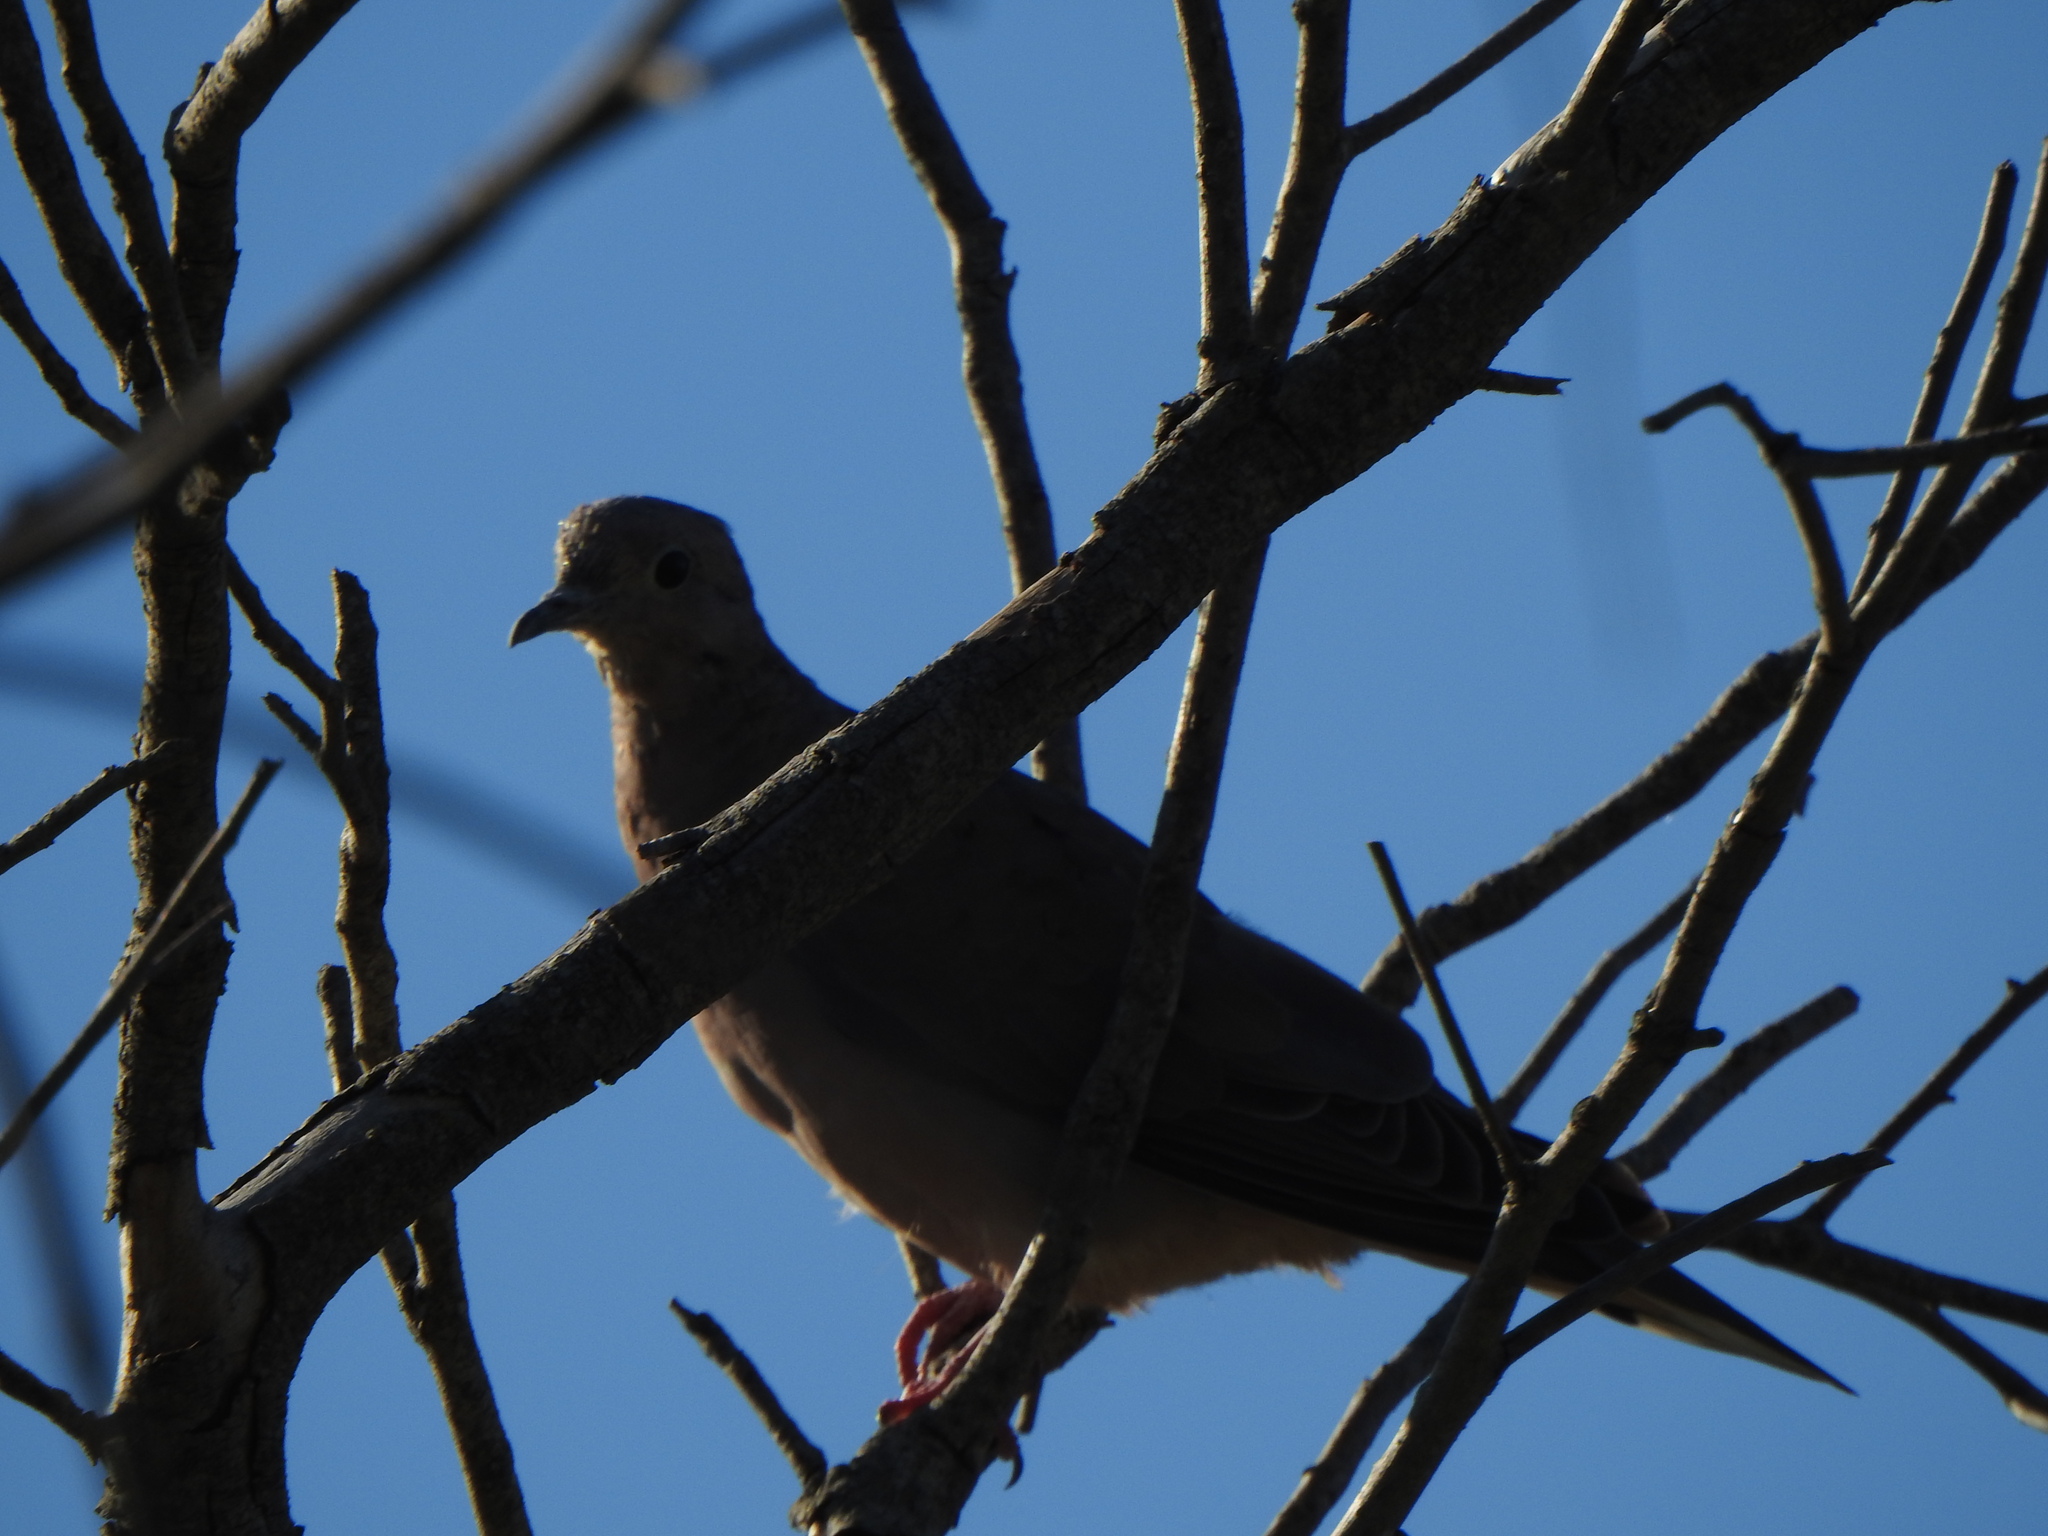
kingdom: Animalia
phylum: Chordata
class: Aves
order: Columbiformes
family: Columbidae
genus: Zenaida
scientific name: Zenaida auriculata
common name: Eared dove
